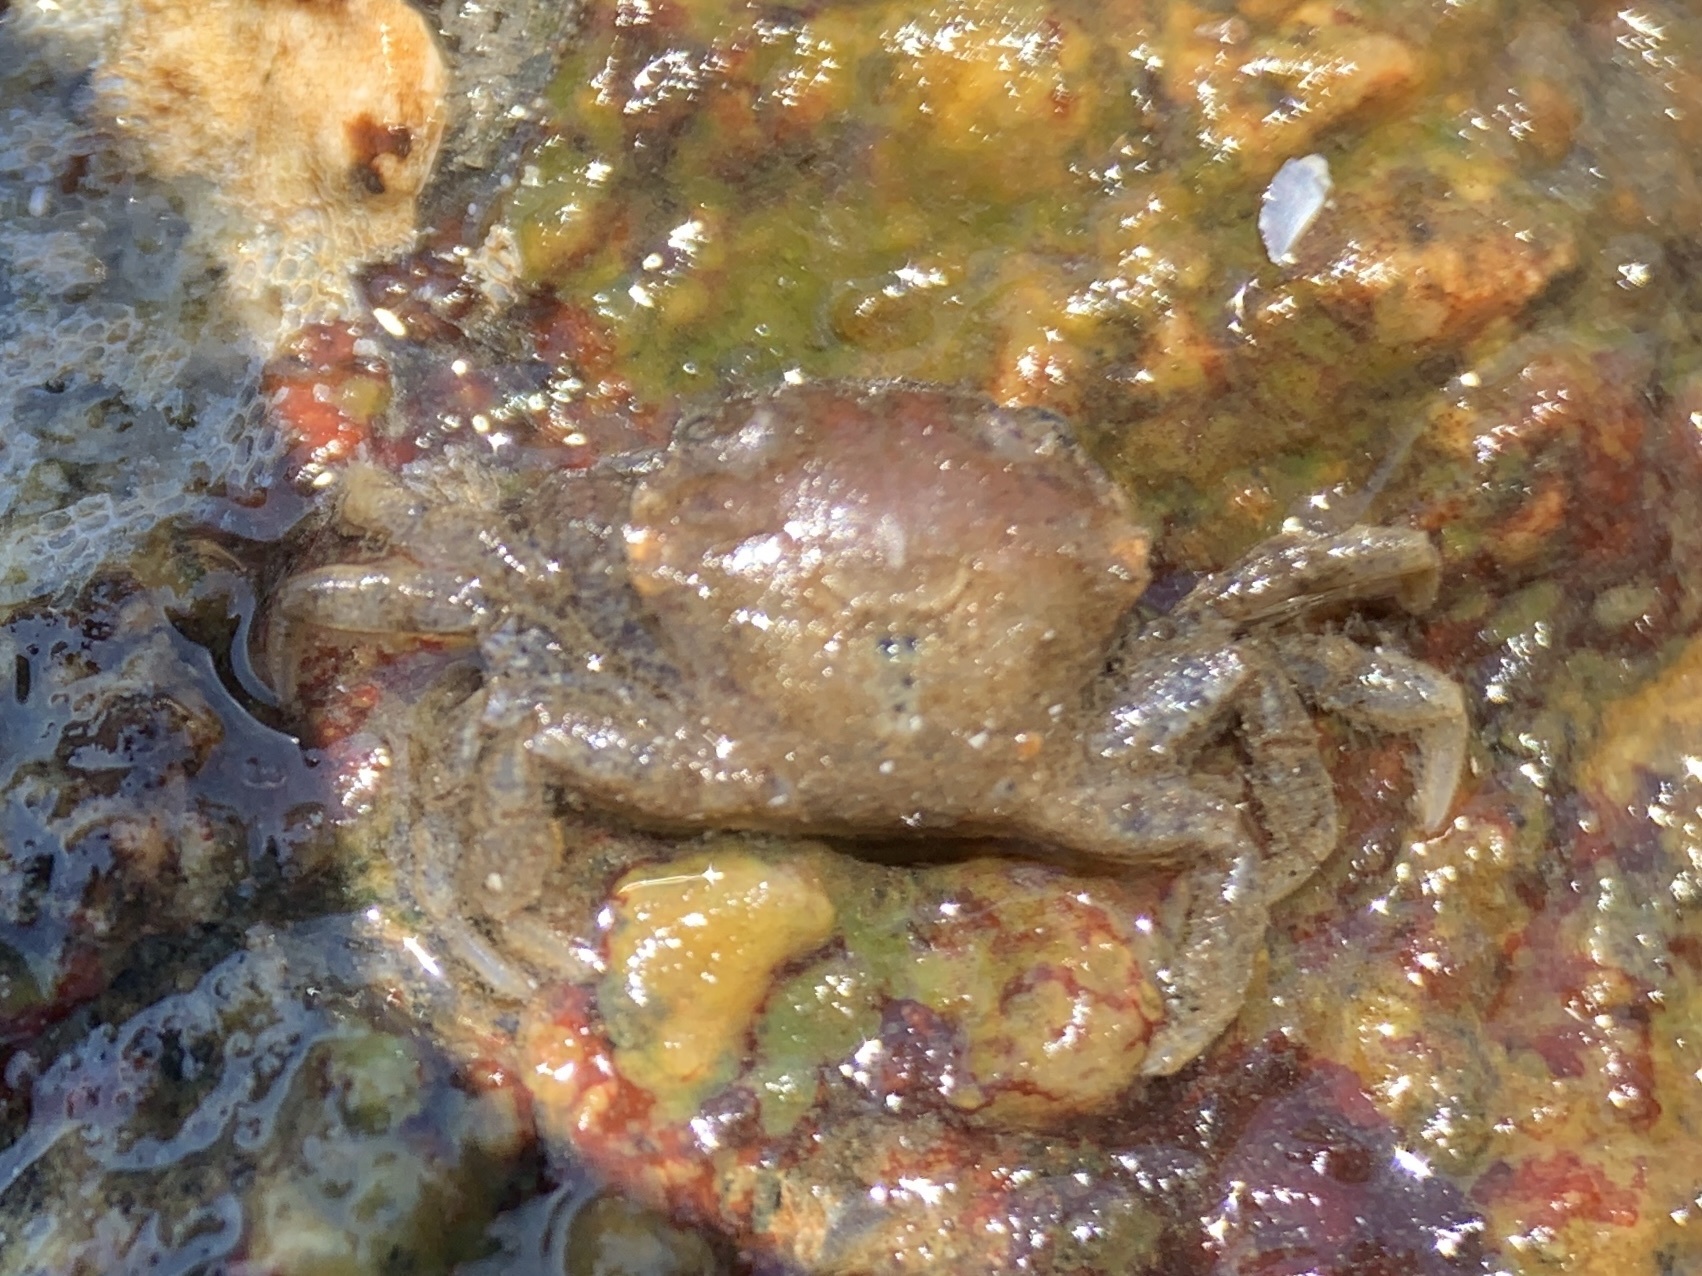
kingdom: Animalia
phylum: Arthropoda
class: Malacostraca
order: Decapoda
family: Carcinidae
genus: Carcinus
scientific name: Carcinus maenas
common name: European green crab
